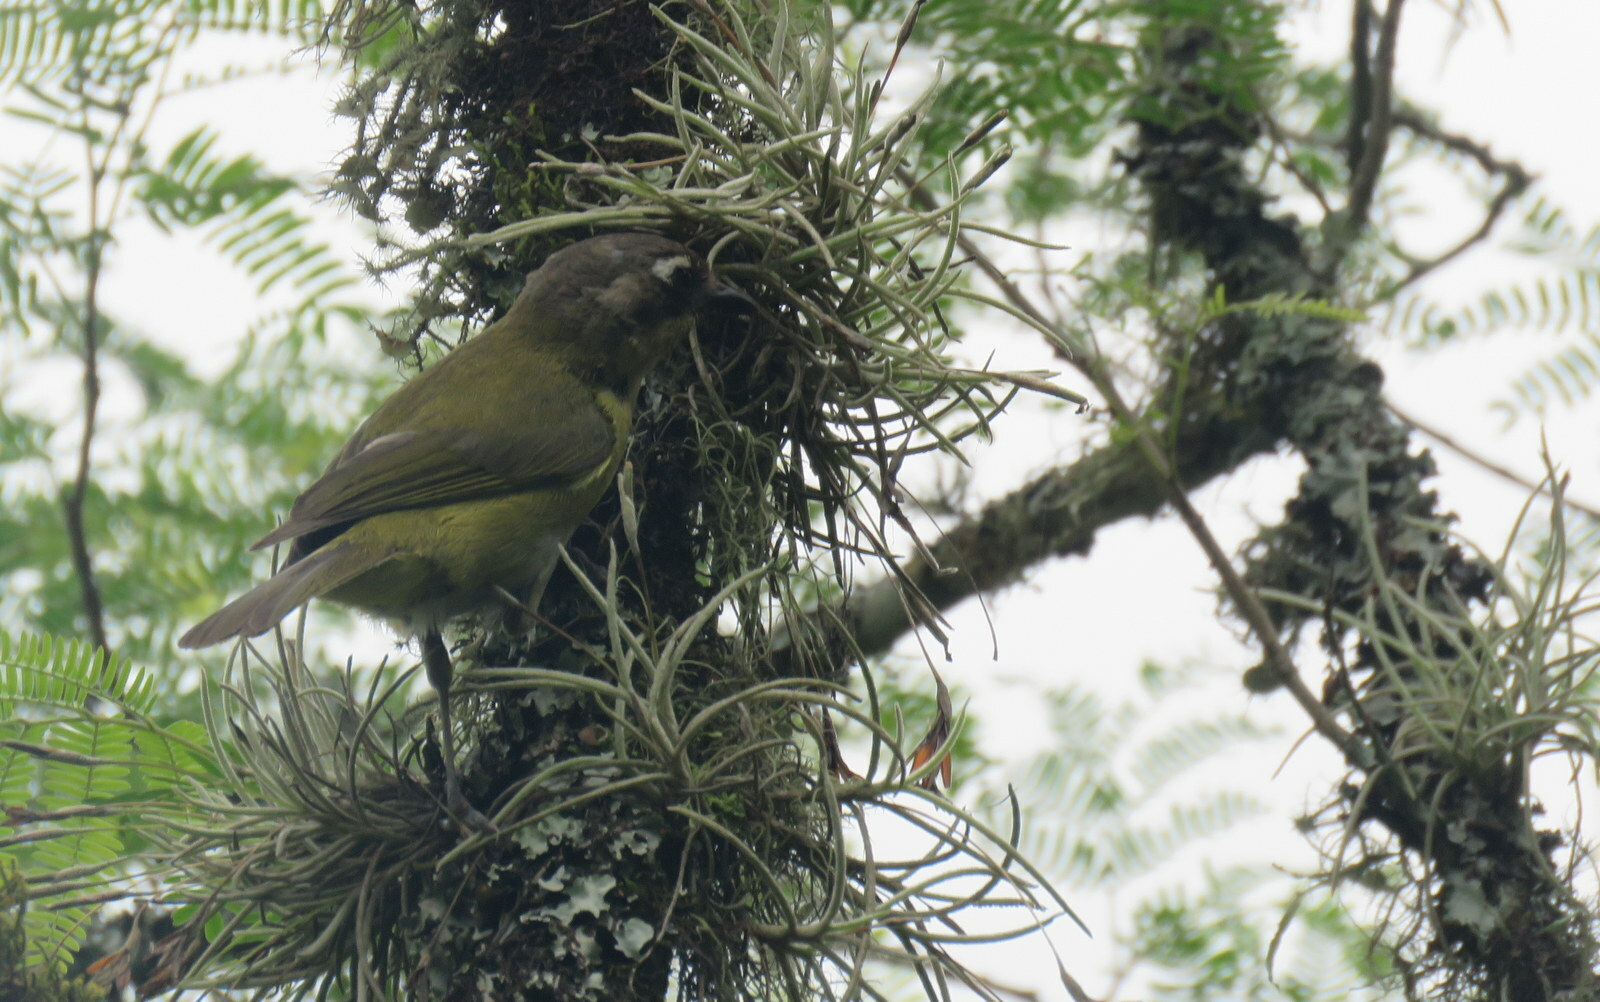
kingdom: Animalia
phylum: Chordata
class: Aves
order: Passeriformes
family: Passerellidae
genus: Chlorospingus
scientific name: Chlorospingus flavopectus
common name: Common chlorospingus
